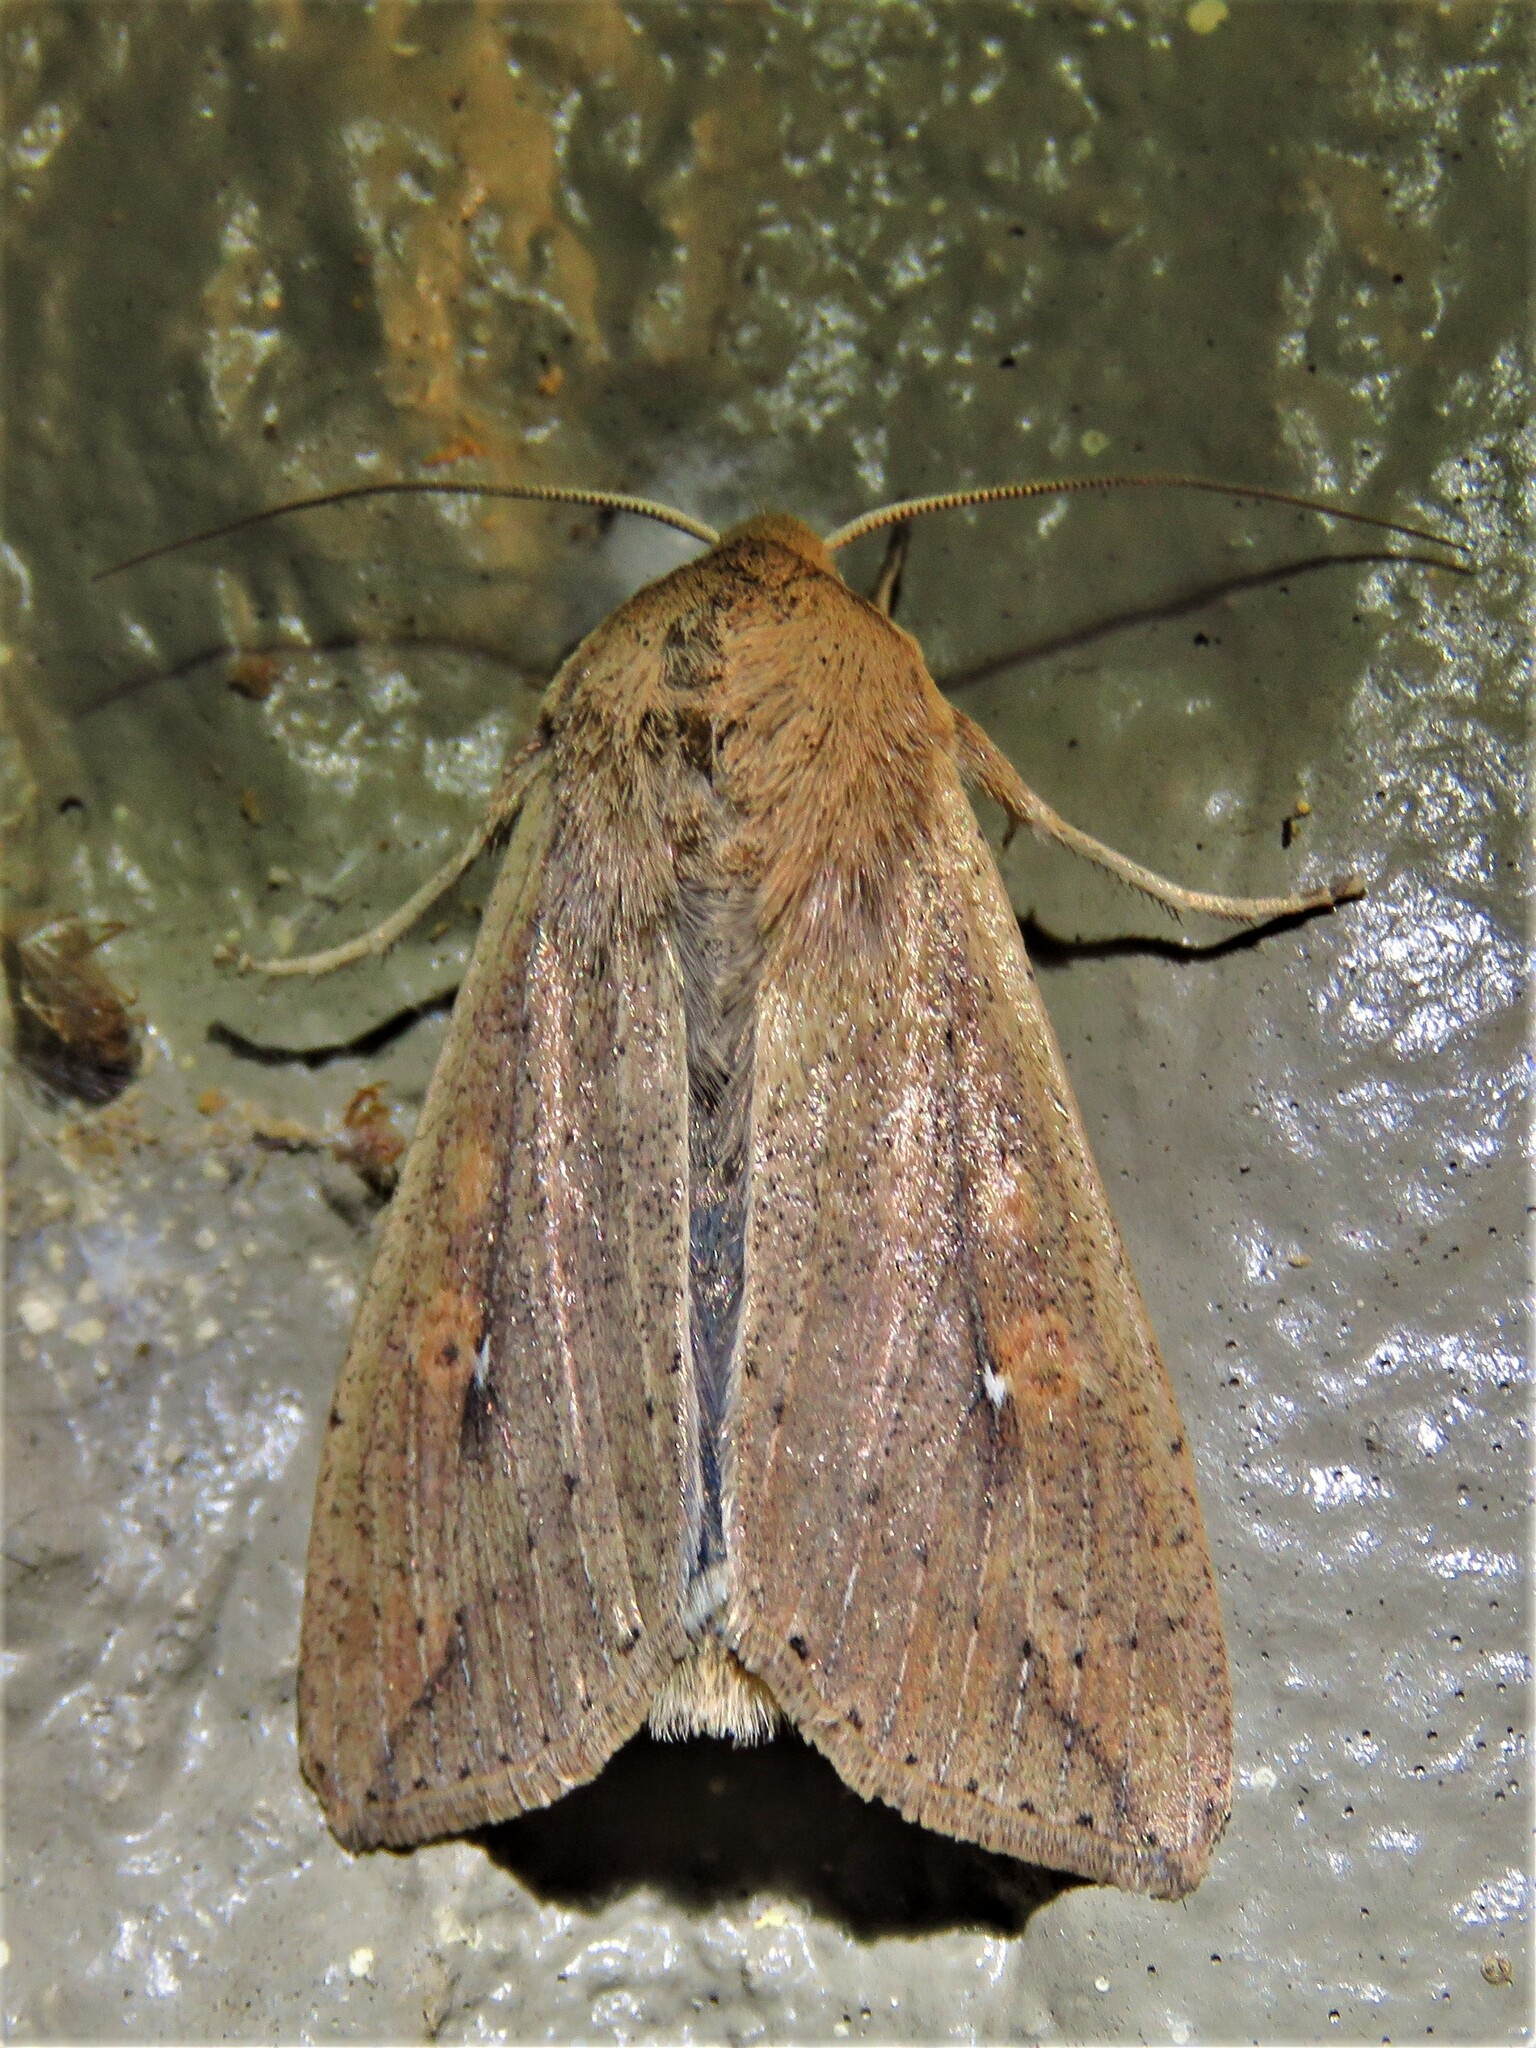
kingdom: Animalia
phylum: Arthropoda
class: Insecta
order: Lepidoptera
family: Noctuidae
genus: Mythimna
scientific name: Mythimna unipuncta
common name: White-speck
